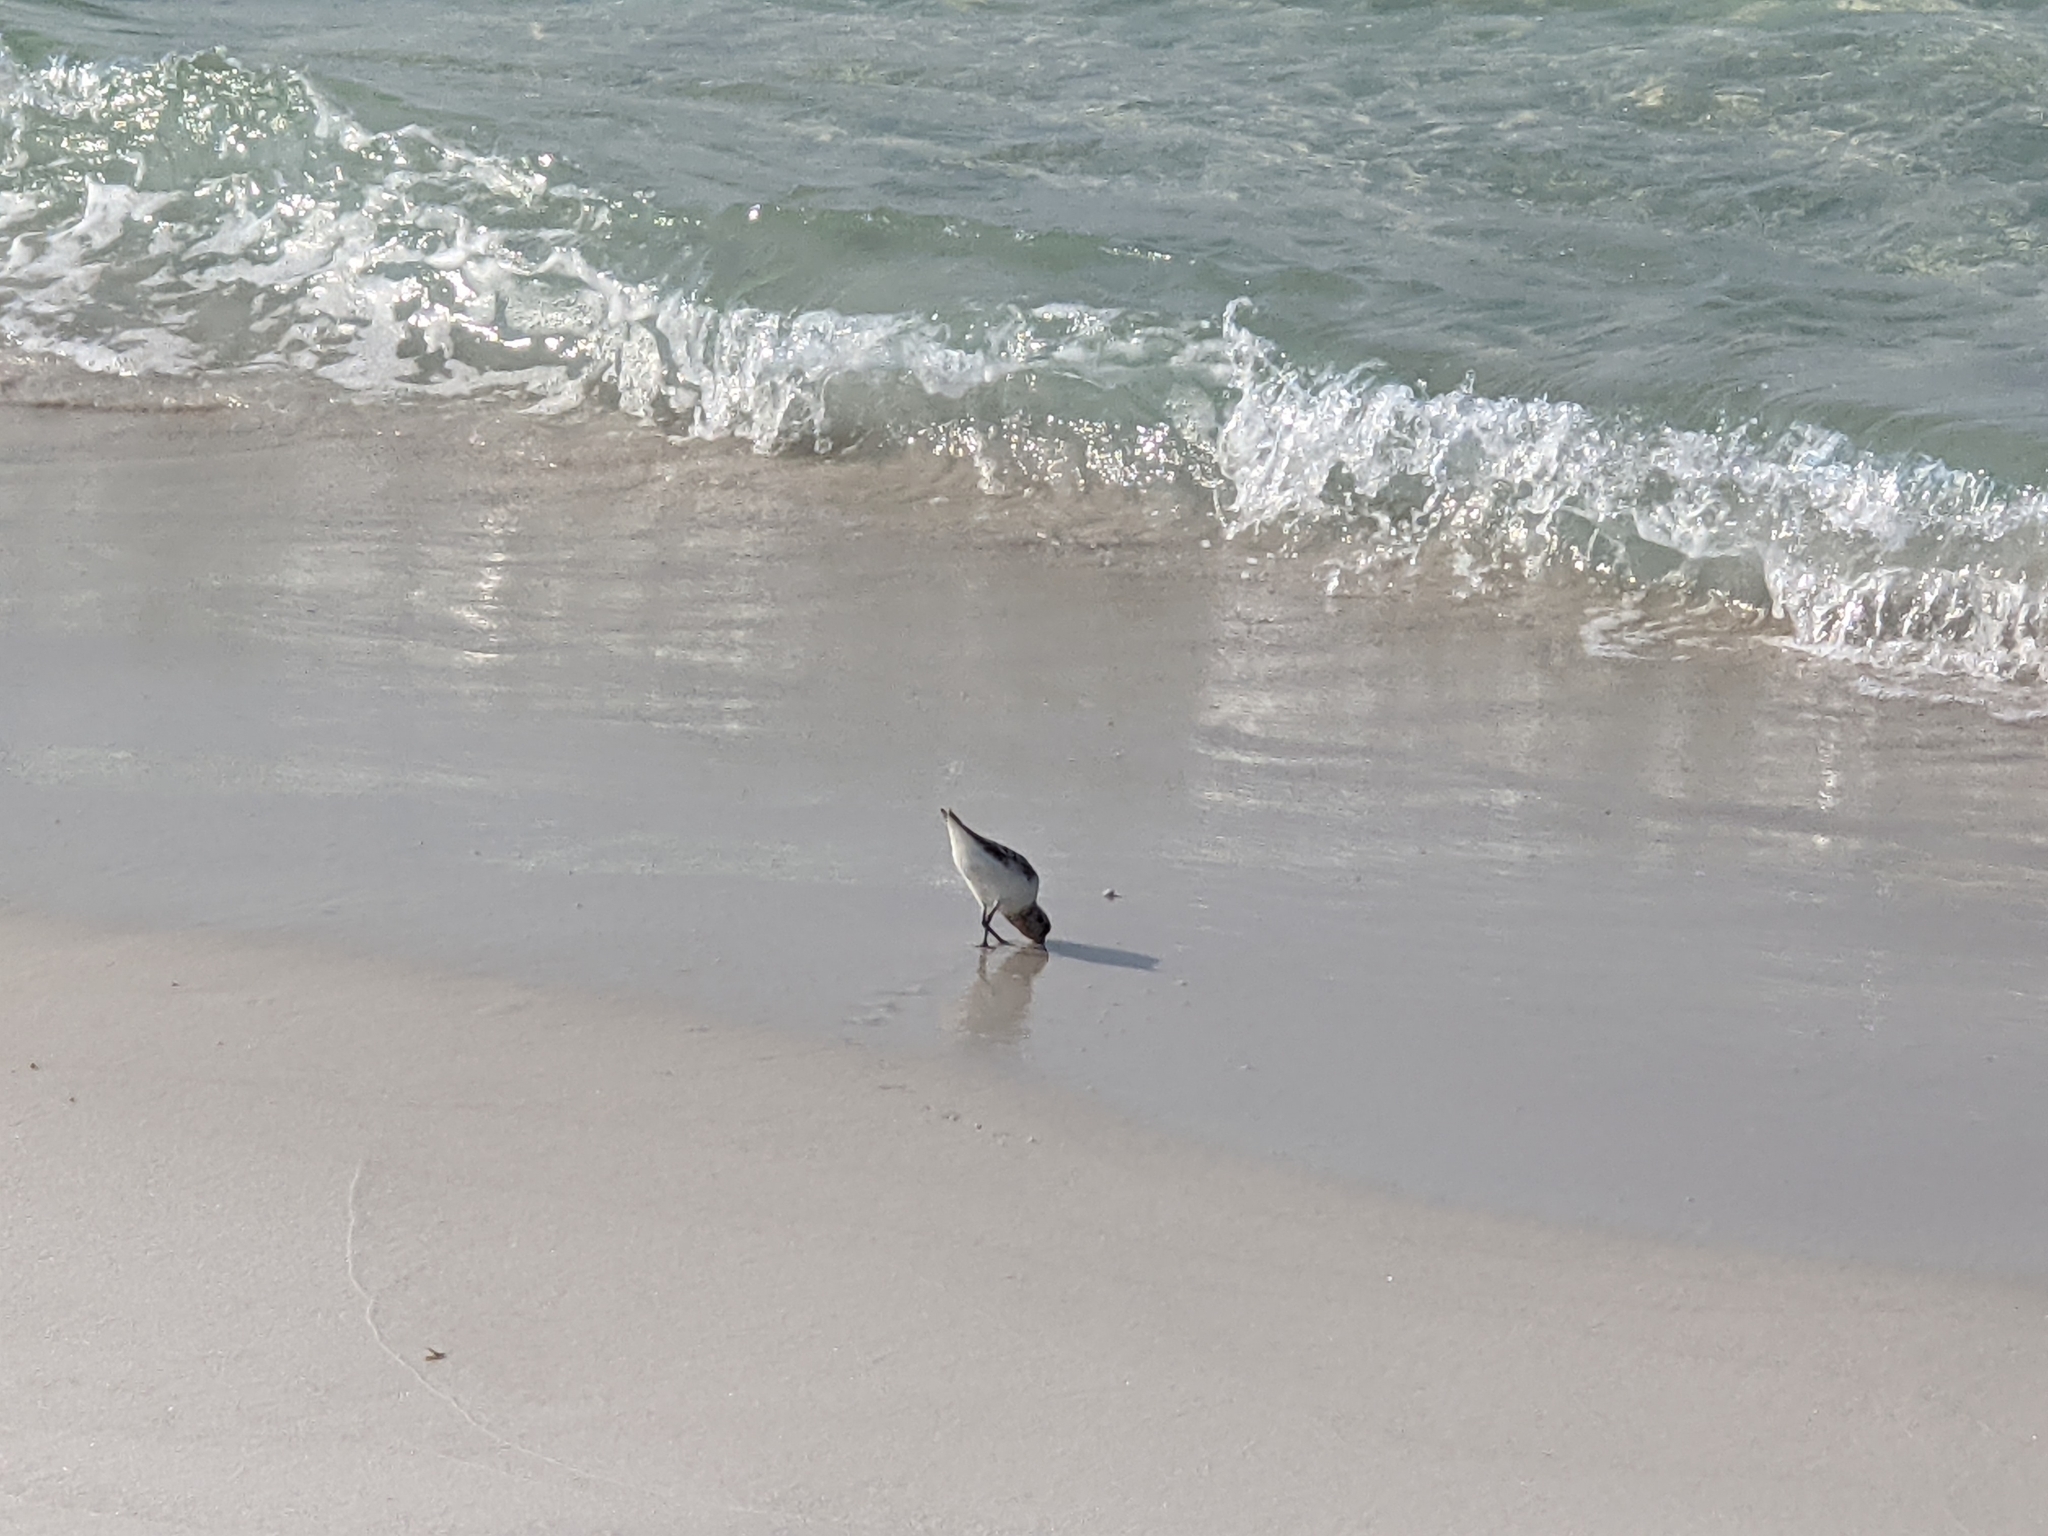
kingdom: Animalia
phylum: Chordata
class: Aves
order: Charadriiformes
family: Scolopacidae
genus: Calidris
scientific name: Calidris alba
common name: Sanderling
